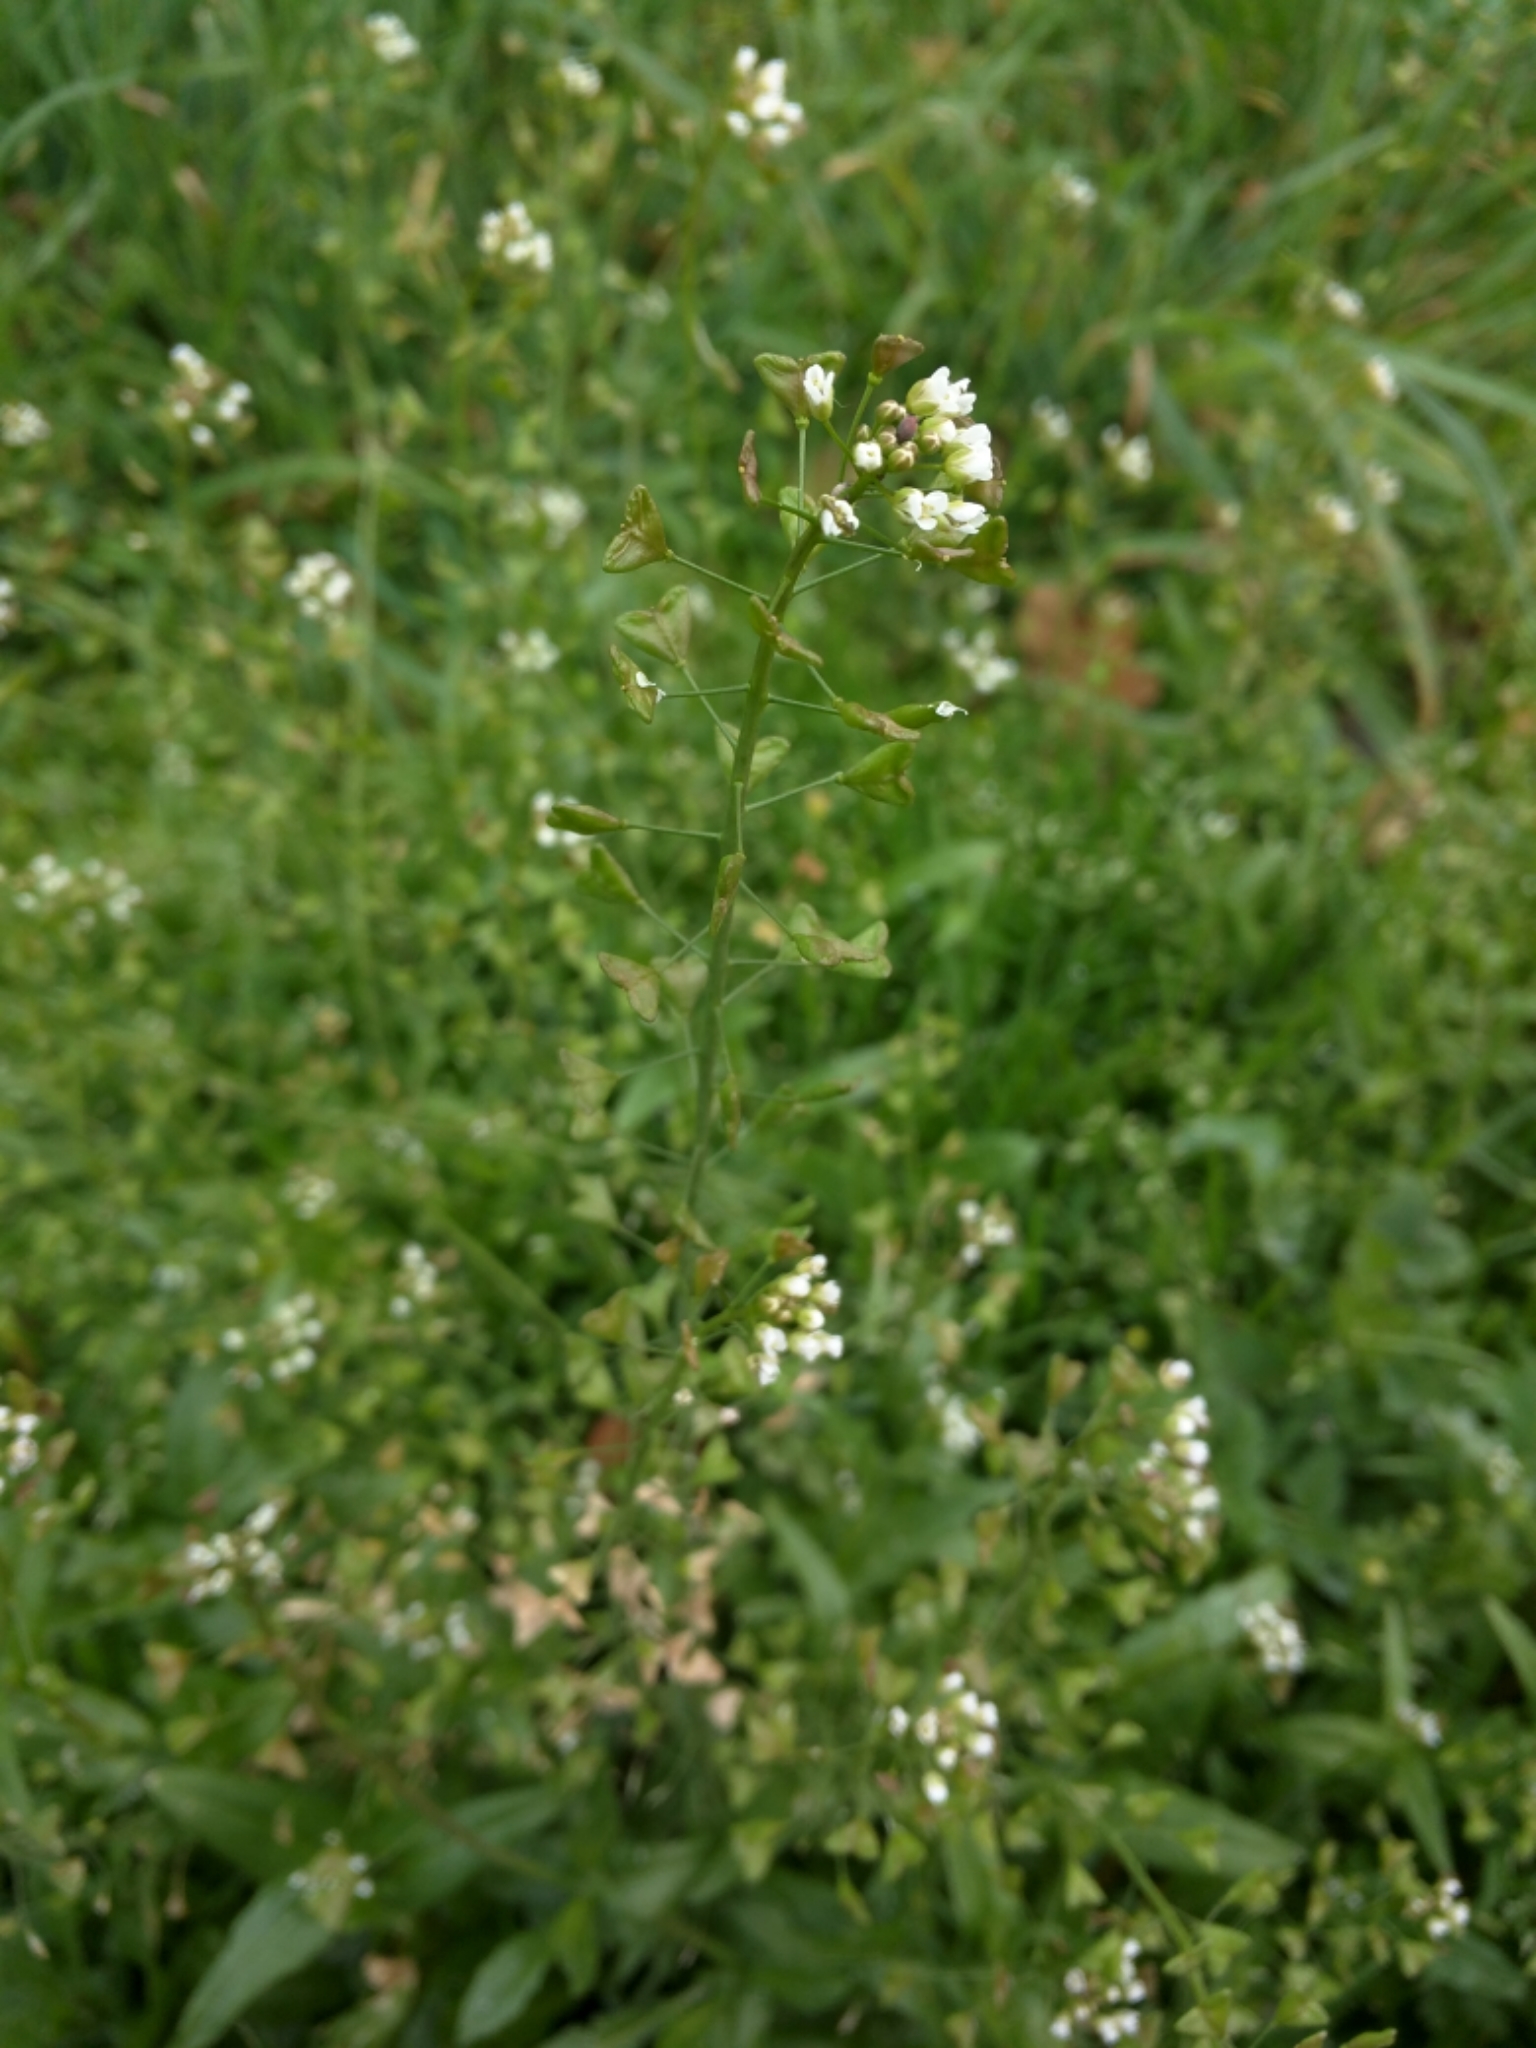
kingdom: Plantae
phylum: Tracheophyta
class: Magnoliopsida
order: Brassicales
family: Brassicaceae
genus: Capsella
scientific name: Capsella bursa-pastoris
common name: Shepherd's purse
